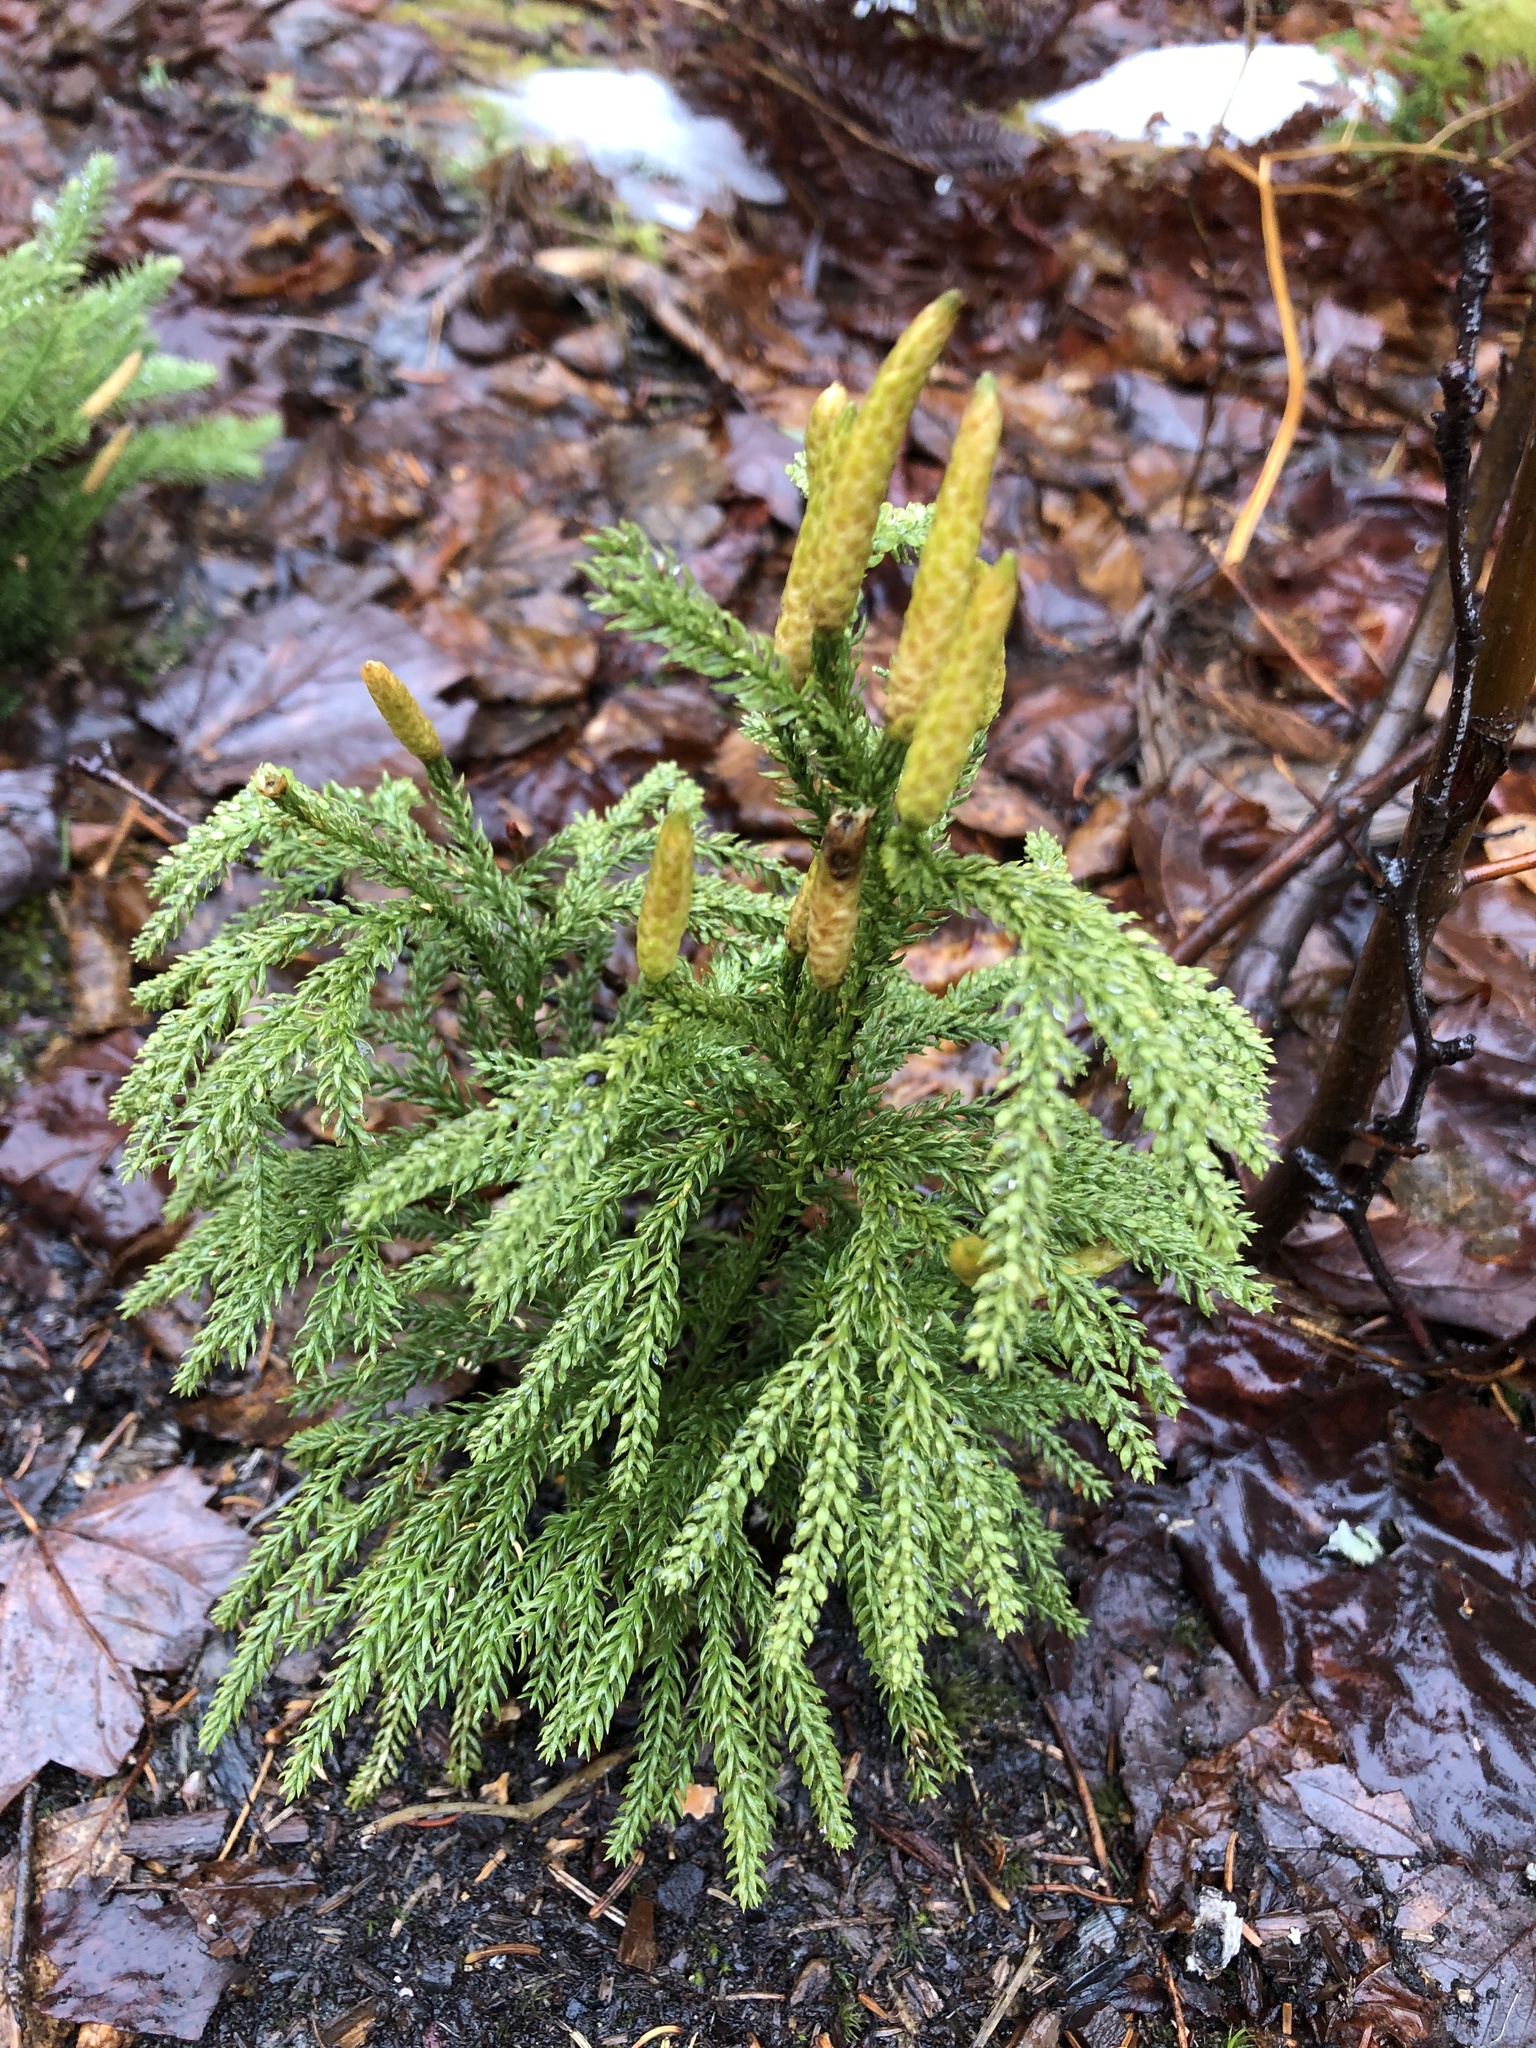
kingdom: Plantae
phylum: Tracheophyta
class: Lycopodiopsida
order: Lycopodiales
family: Lycopodiaceae
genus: Dendrolycopodium
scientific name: Dendrolycopodium dendroideum
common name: Northern tree-clubmoss
